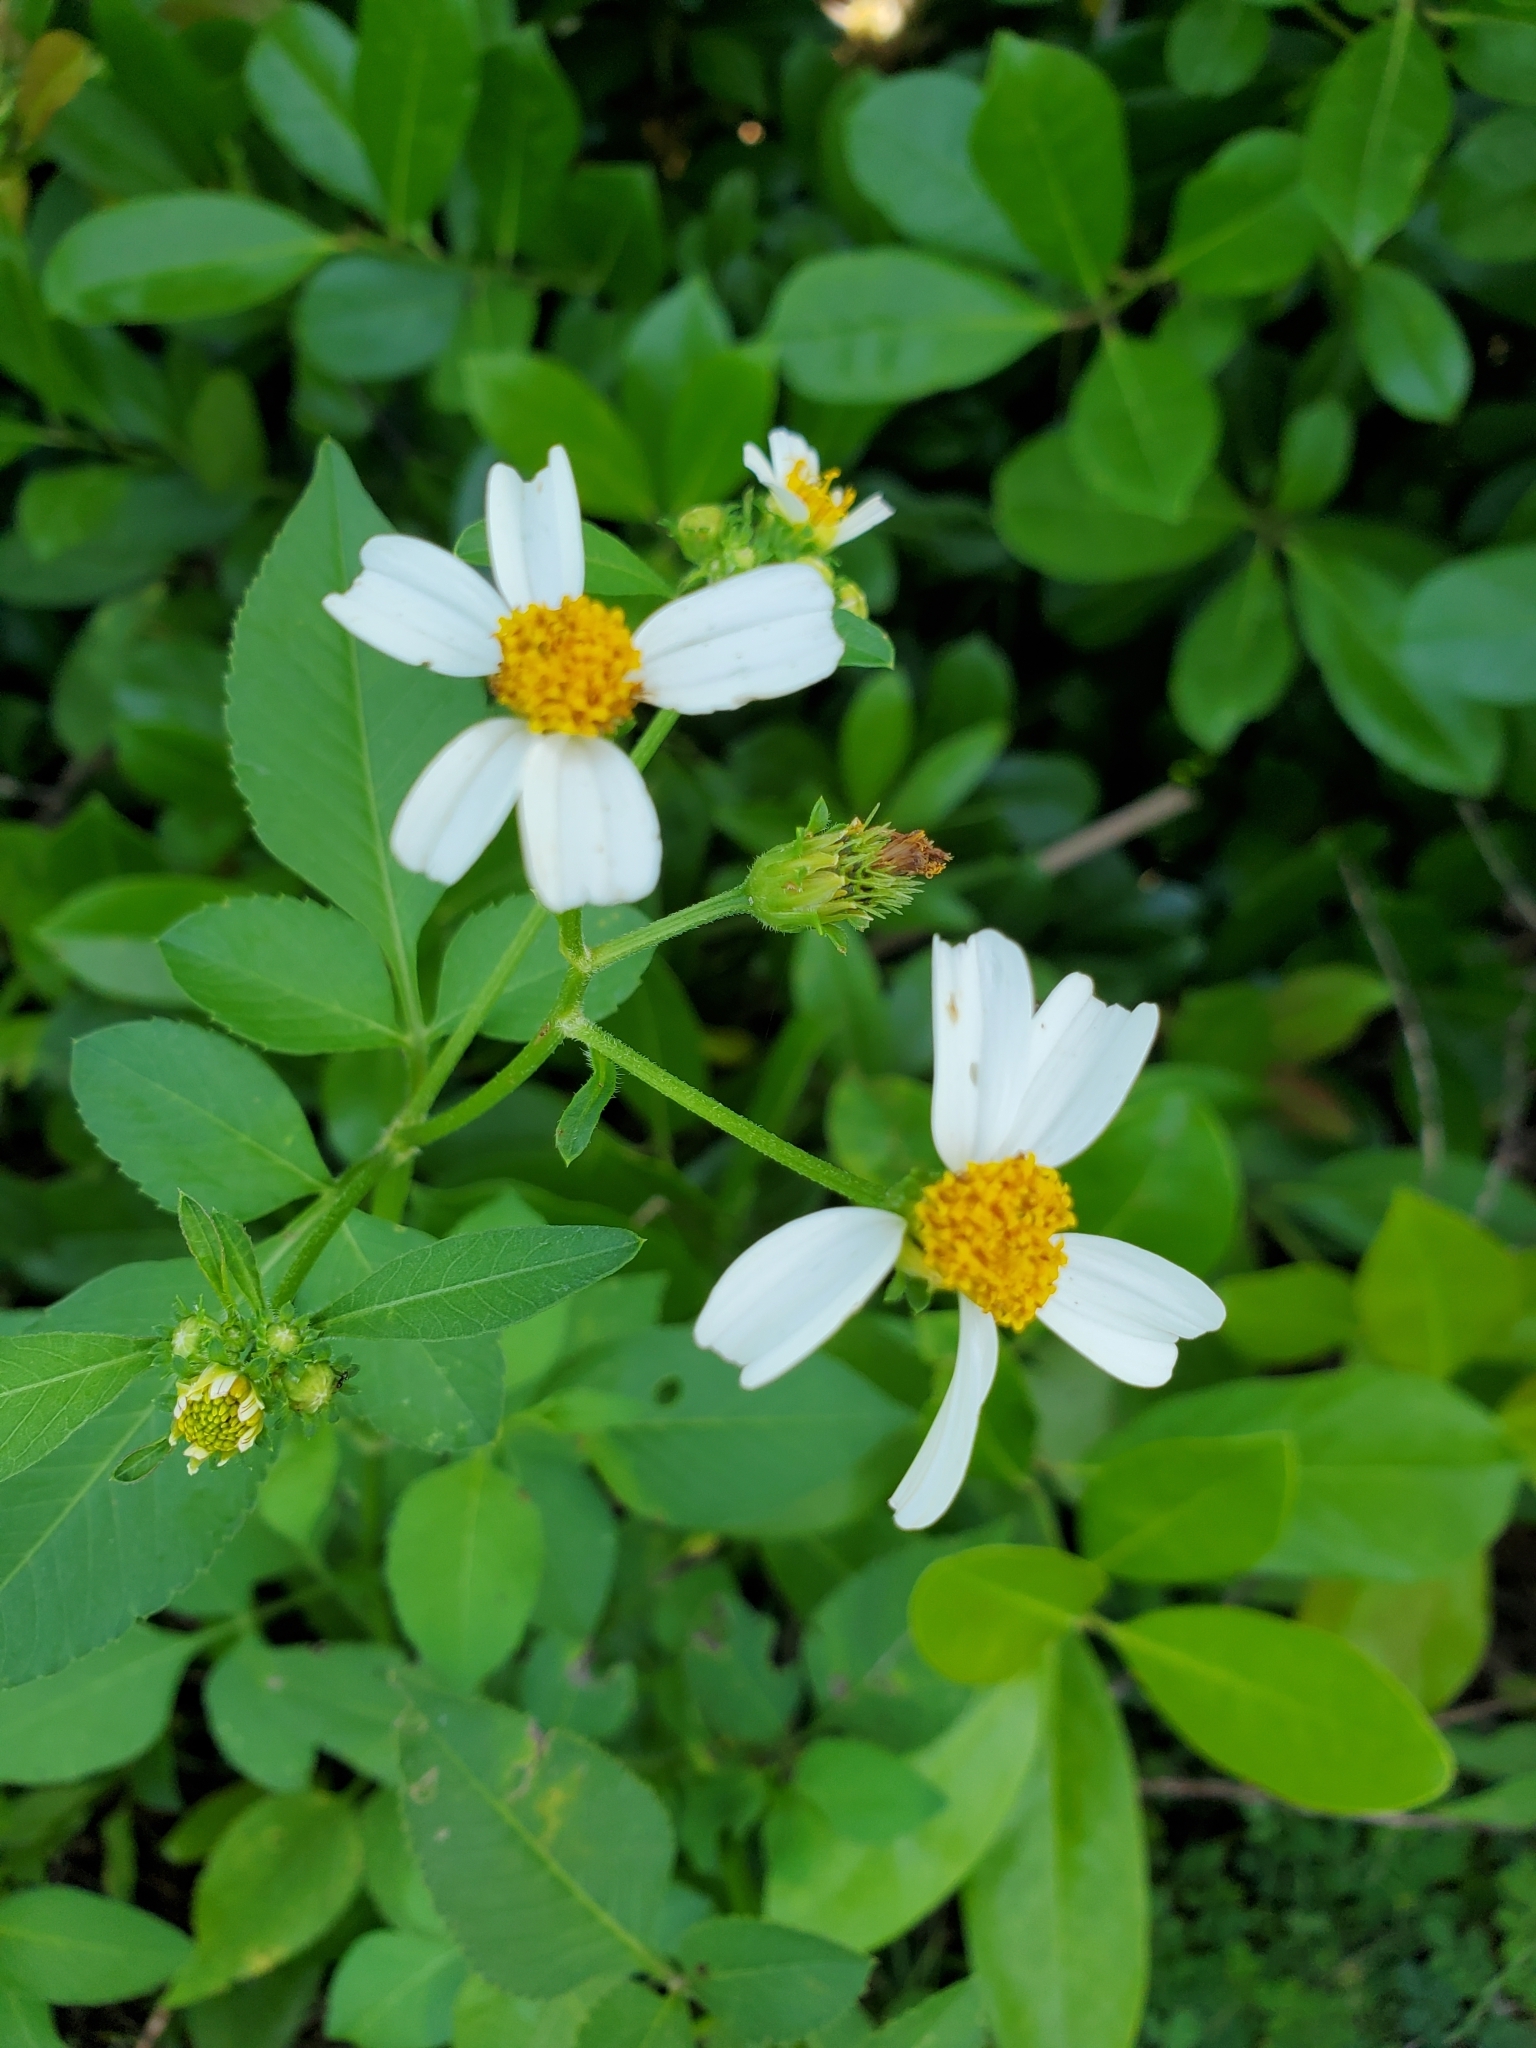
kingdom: Plantae
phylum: Tracheophyta
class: Magnoliopsida
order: Asterales
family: Asteraceae
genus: Bidens
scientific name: Bidens alba
